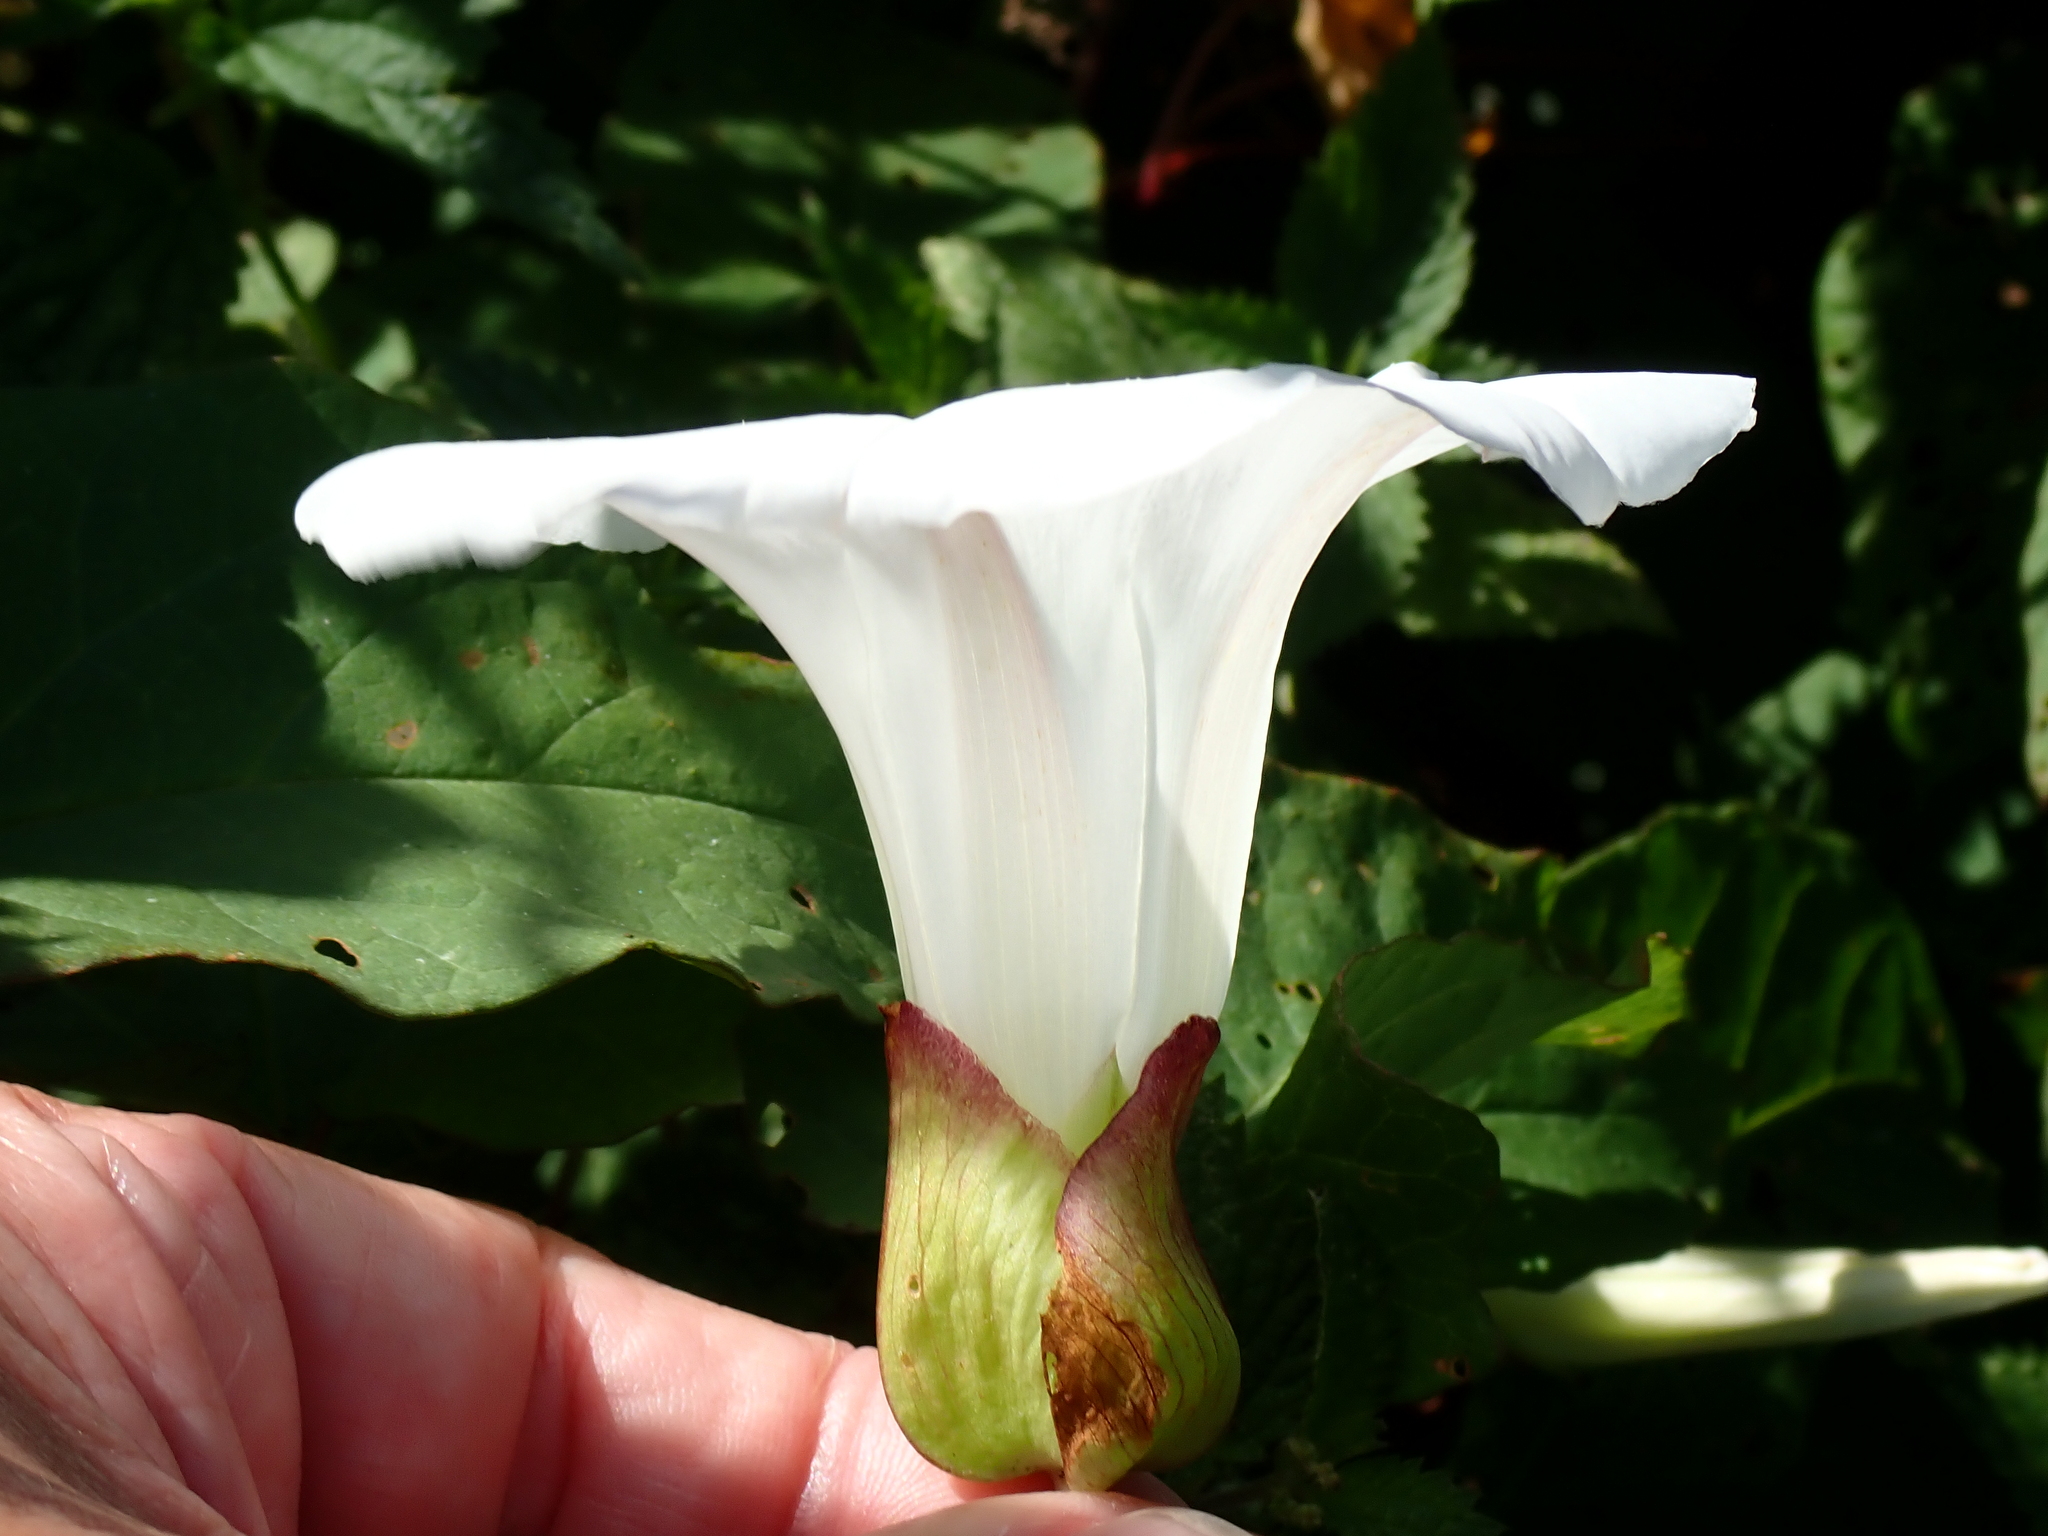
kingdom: Plantae
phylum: Tracheophyta
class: Magnoliopsida
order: Solanales
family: Convolvulaceae
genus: Calystegia
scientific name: Calystegia silvatica
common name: Large bindweed
